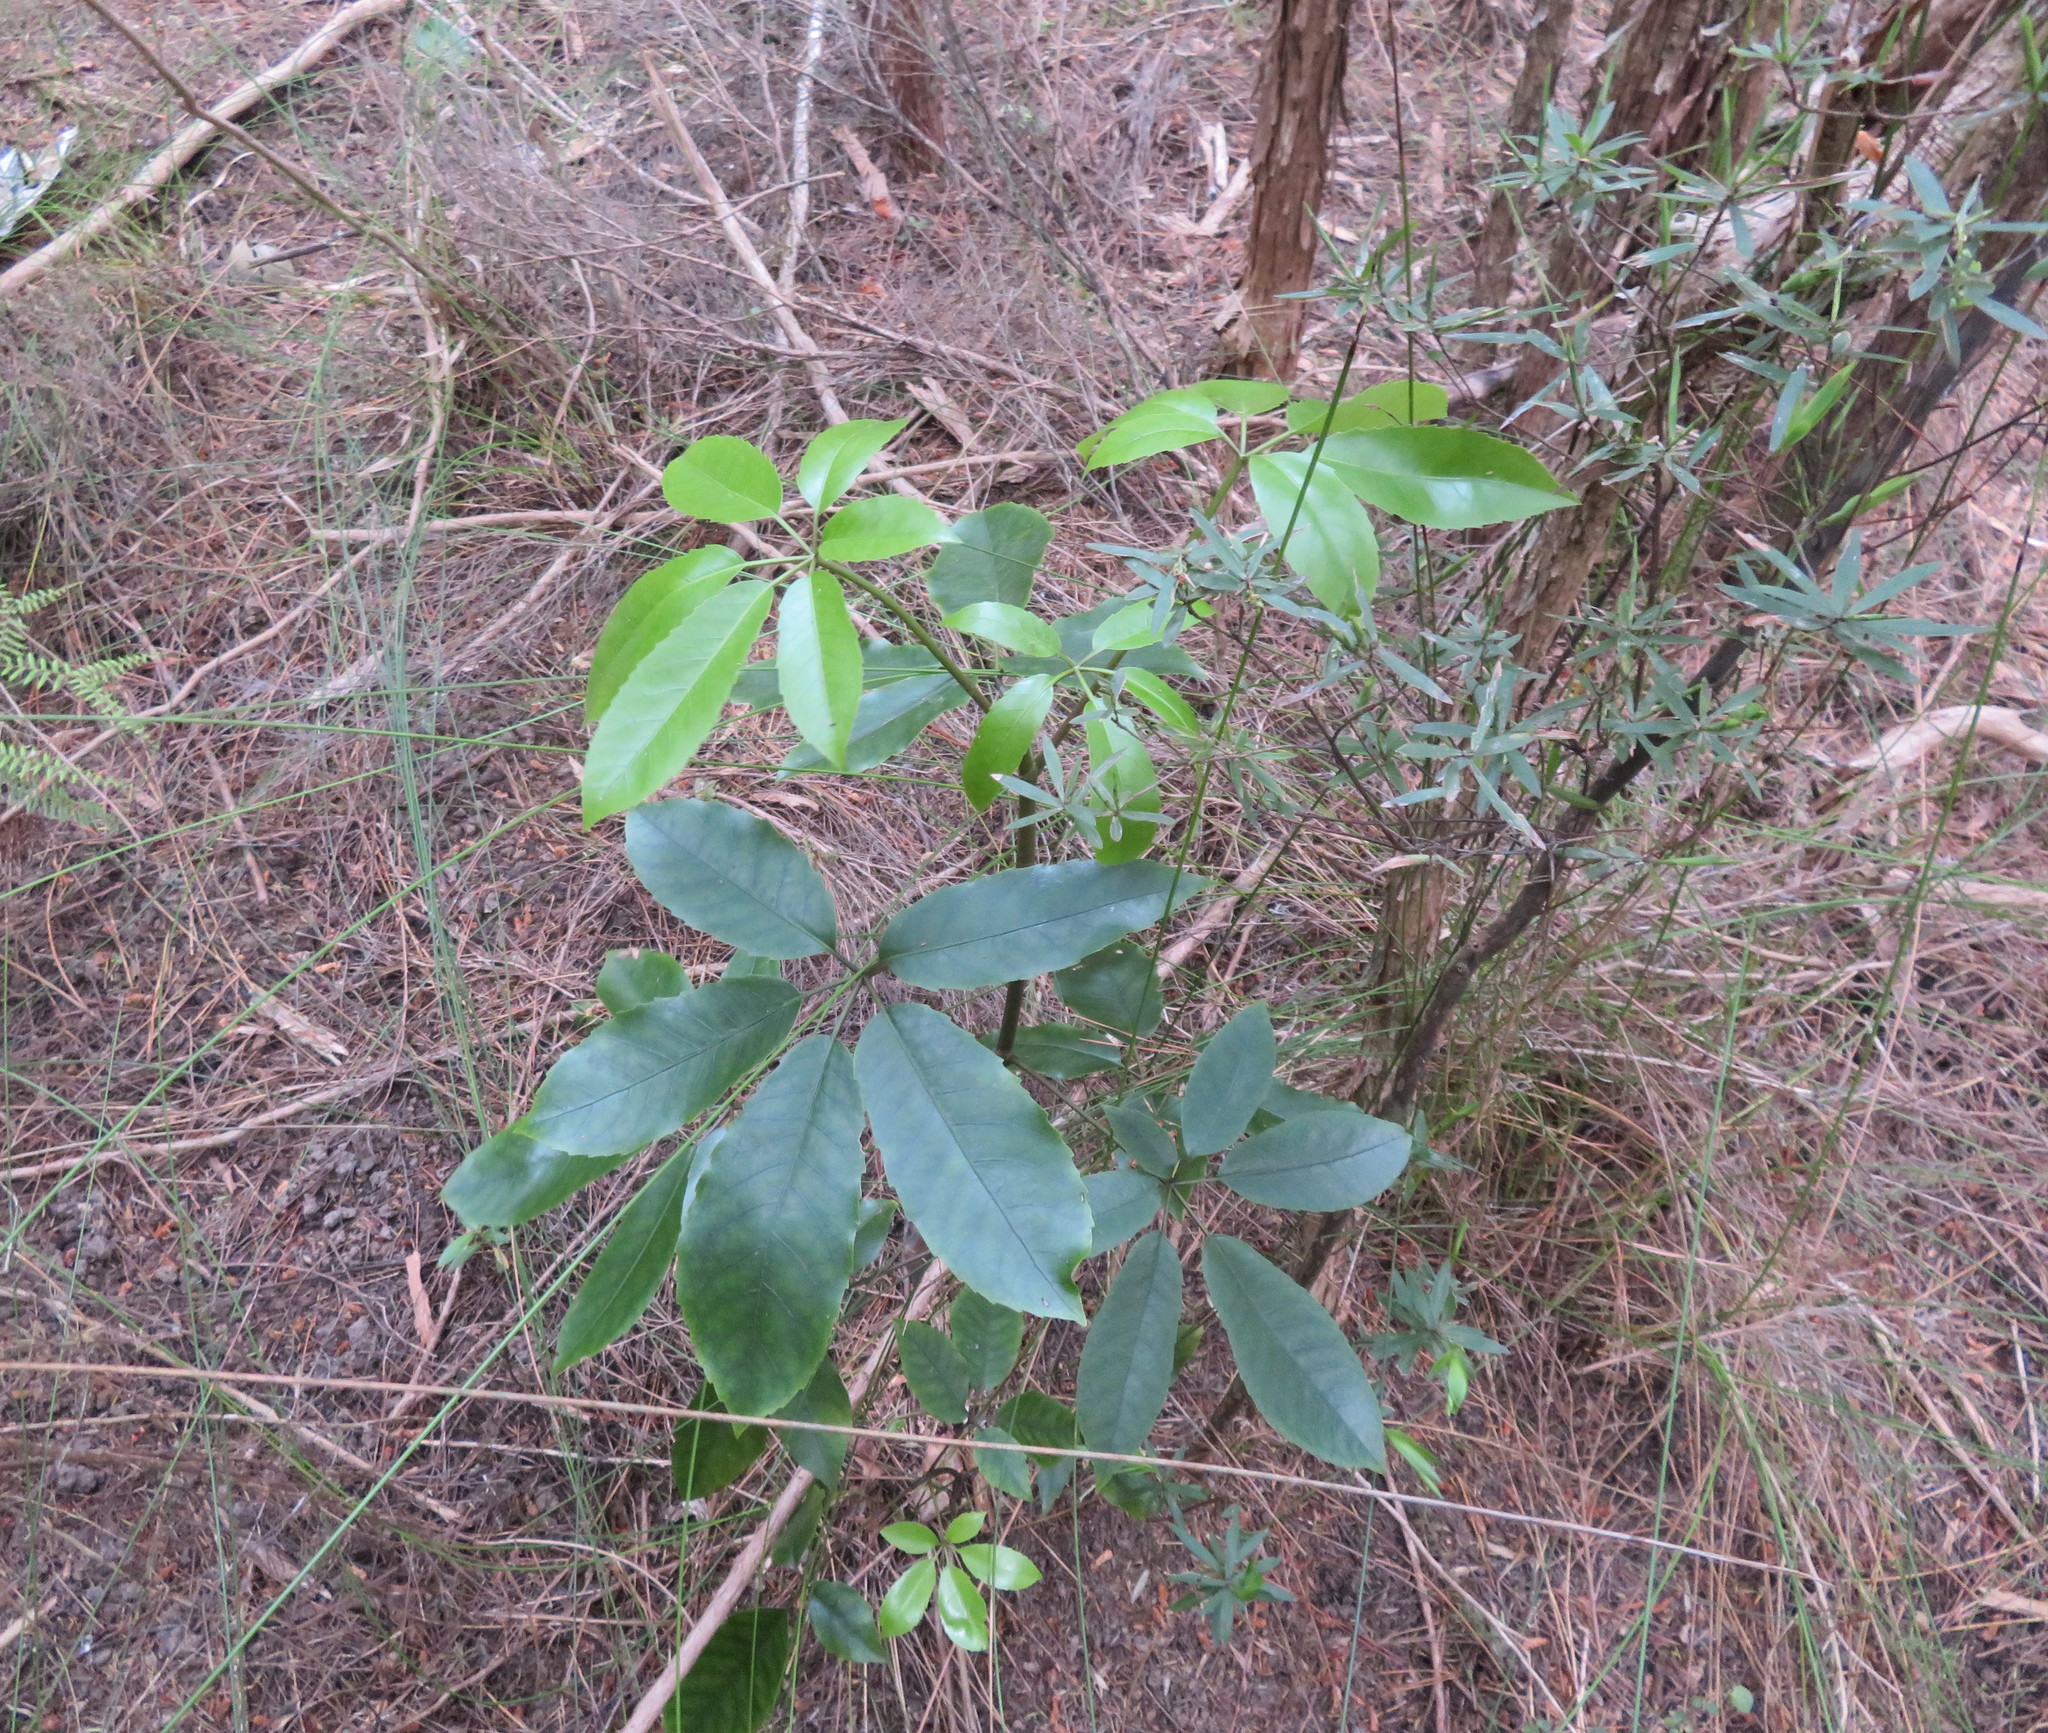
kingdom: Plantae
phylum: Tracheophyta
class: Magnoliopsida
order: Apiales
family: Araliaceae
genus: Neopanax
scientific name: Neopanax arboreus
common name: Five-fingers
